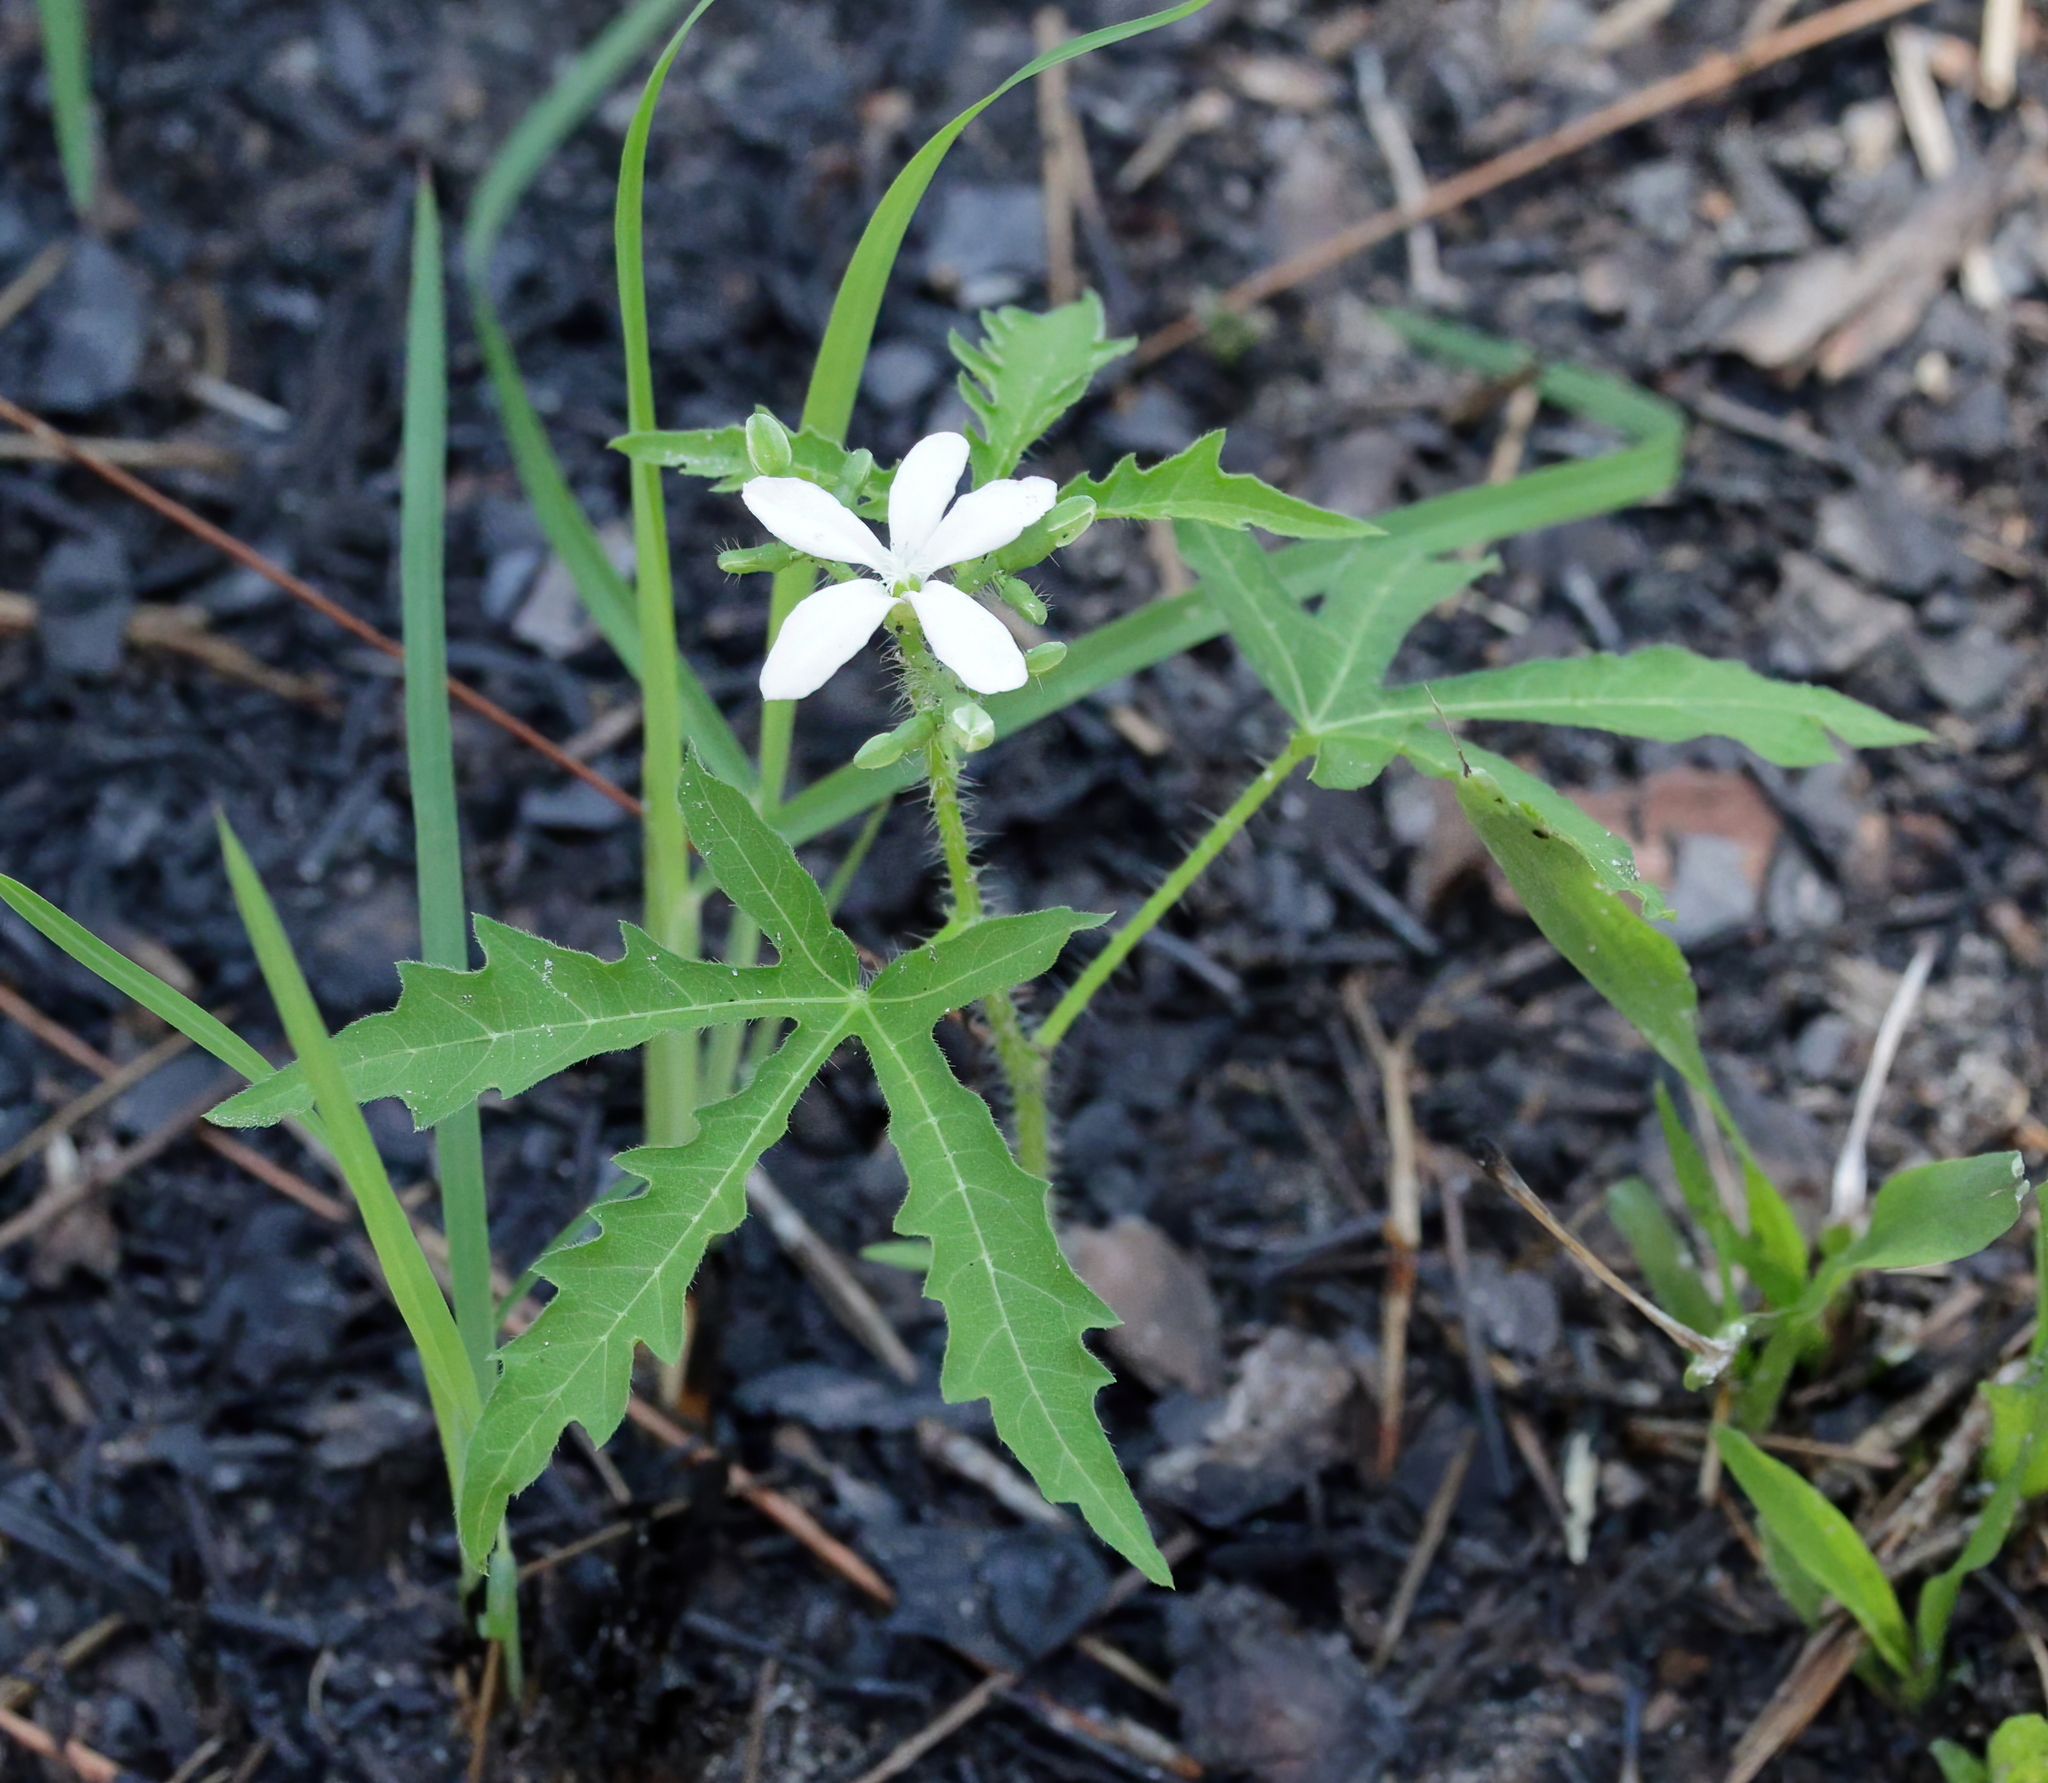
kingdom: Plantae
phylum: Tracheophyta
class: Magnoliopsida
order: Malpighiales
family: Euphorbiaceae
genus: Cnidoscolus
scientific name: Cnidoscolus stimulosus
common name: Bull-nettle
